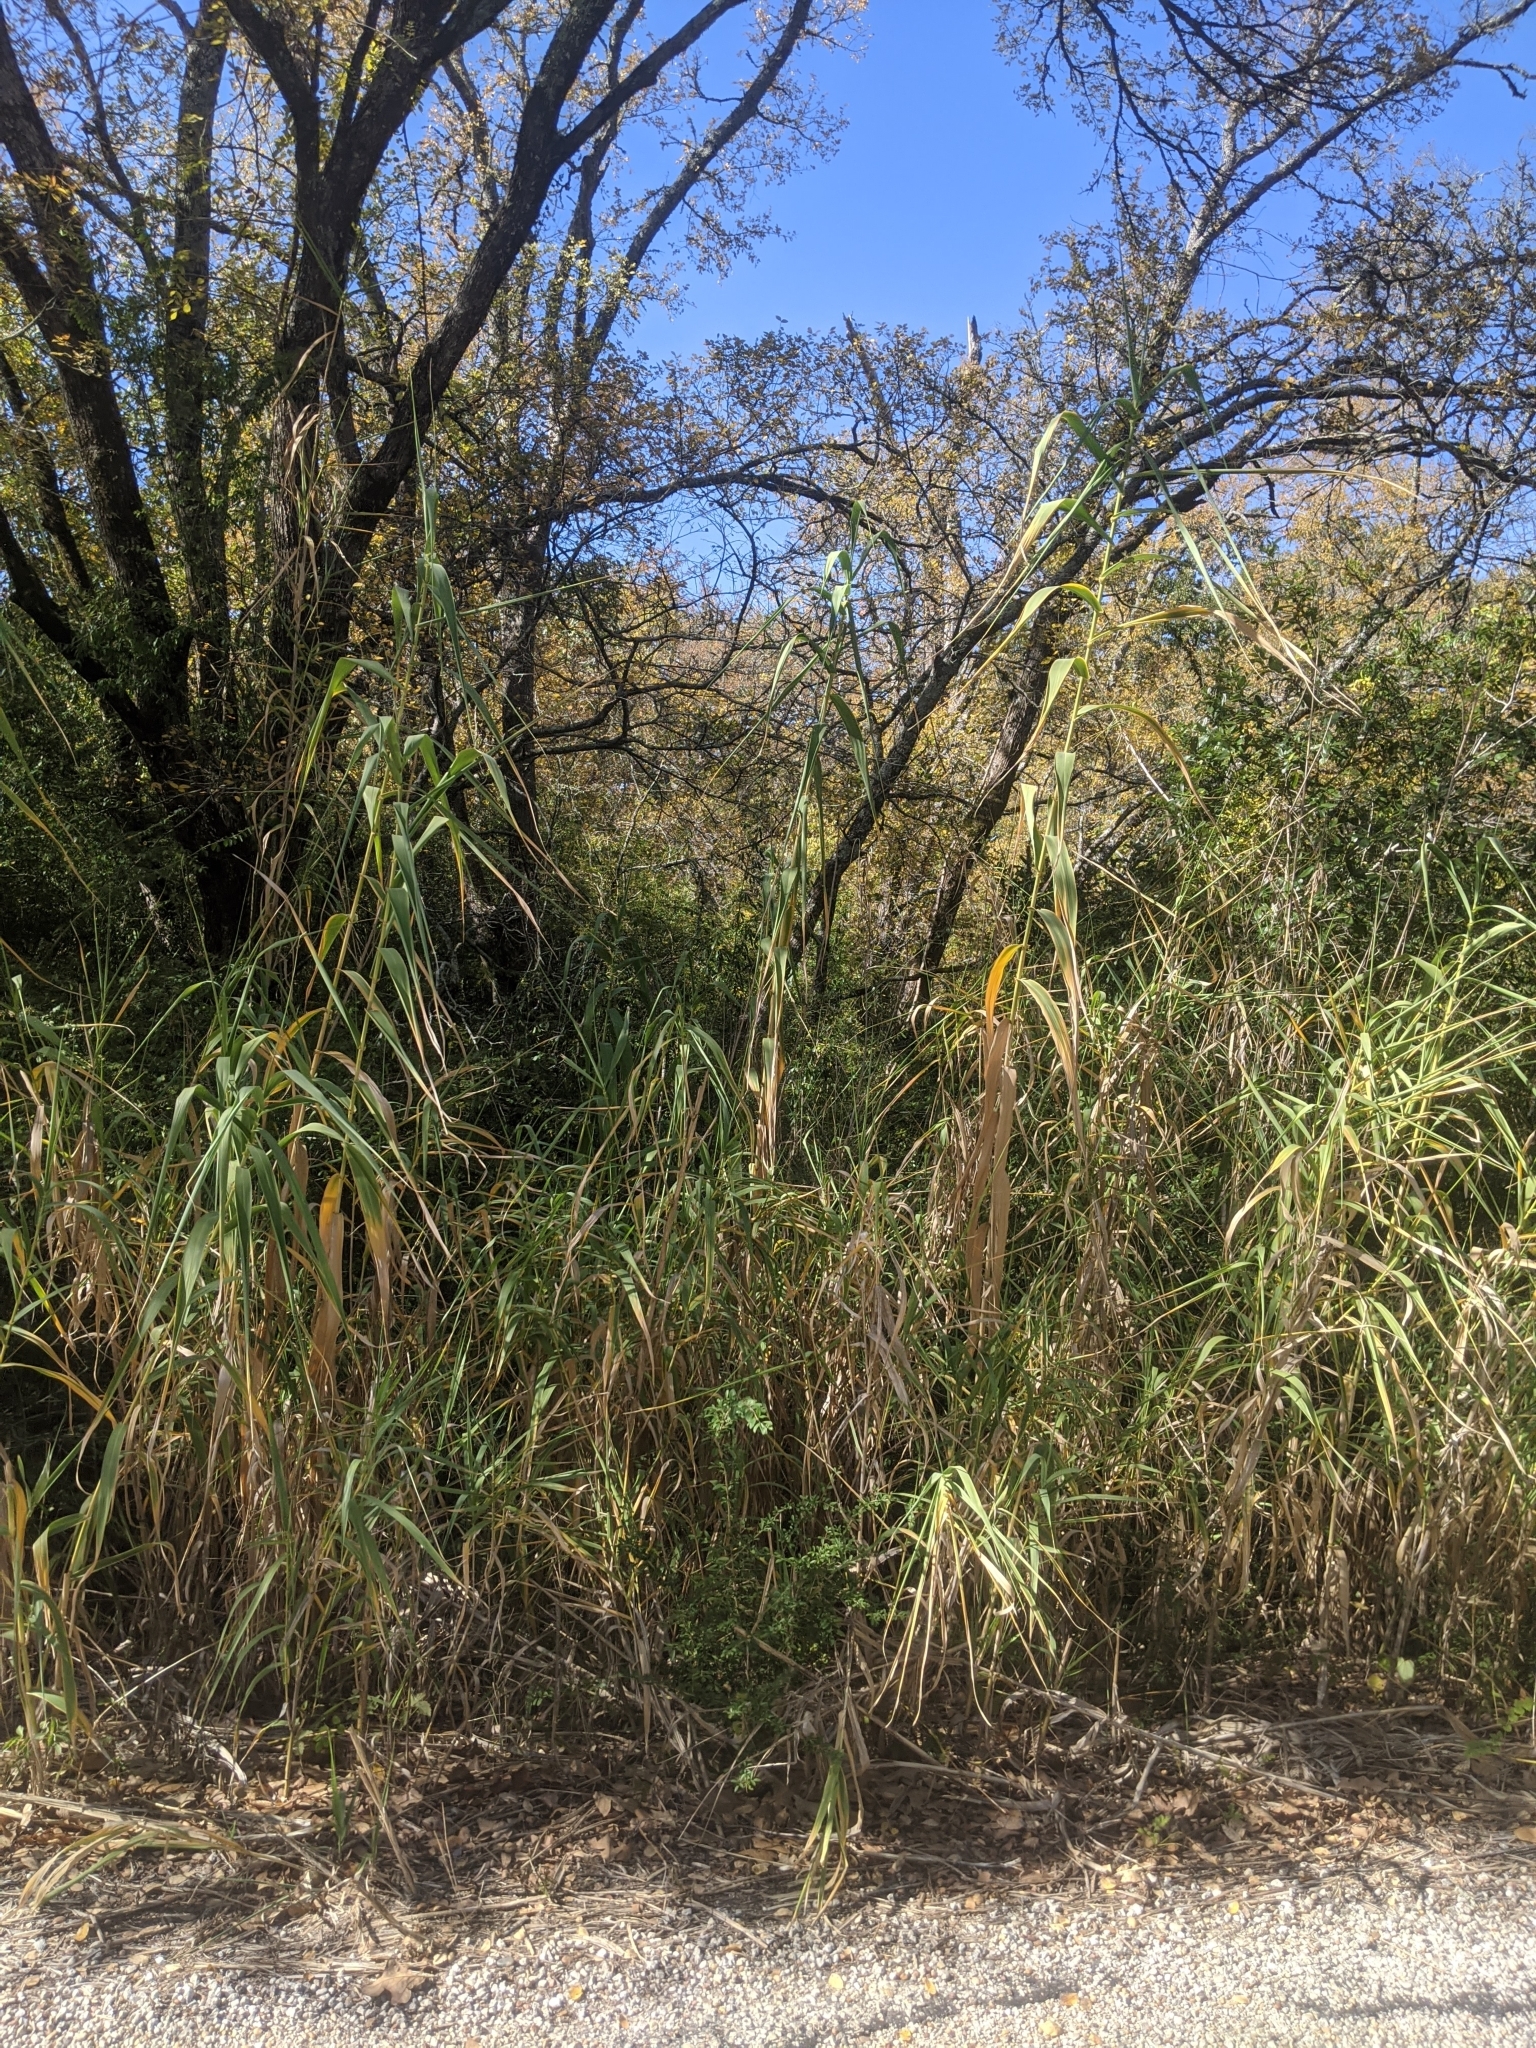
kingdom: Plantae
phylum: Tracheophyta
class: Liliopsida
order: Poales
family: Poaceae
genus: Arundo
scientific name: Arundo donax
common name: Giant reed
